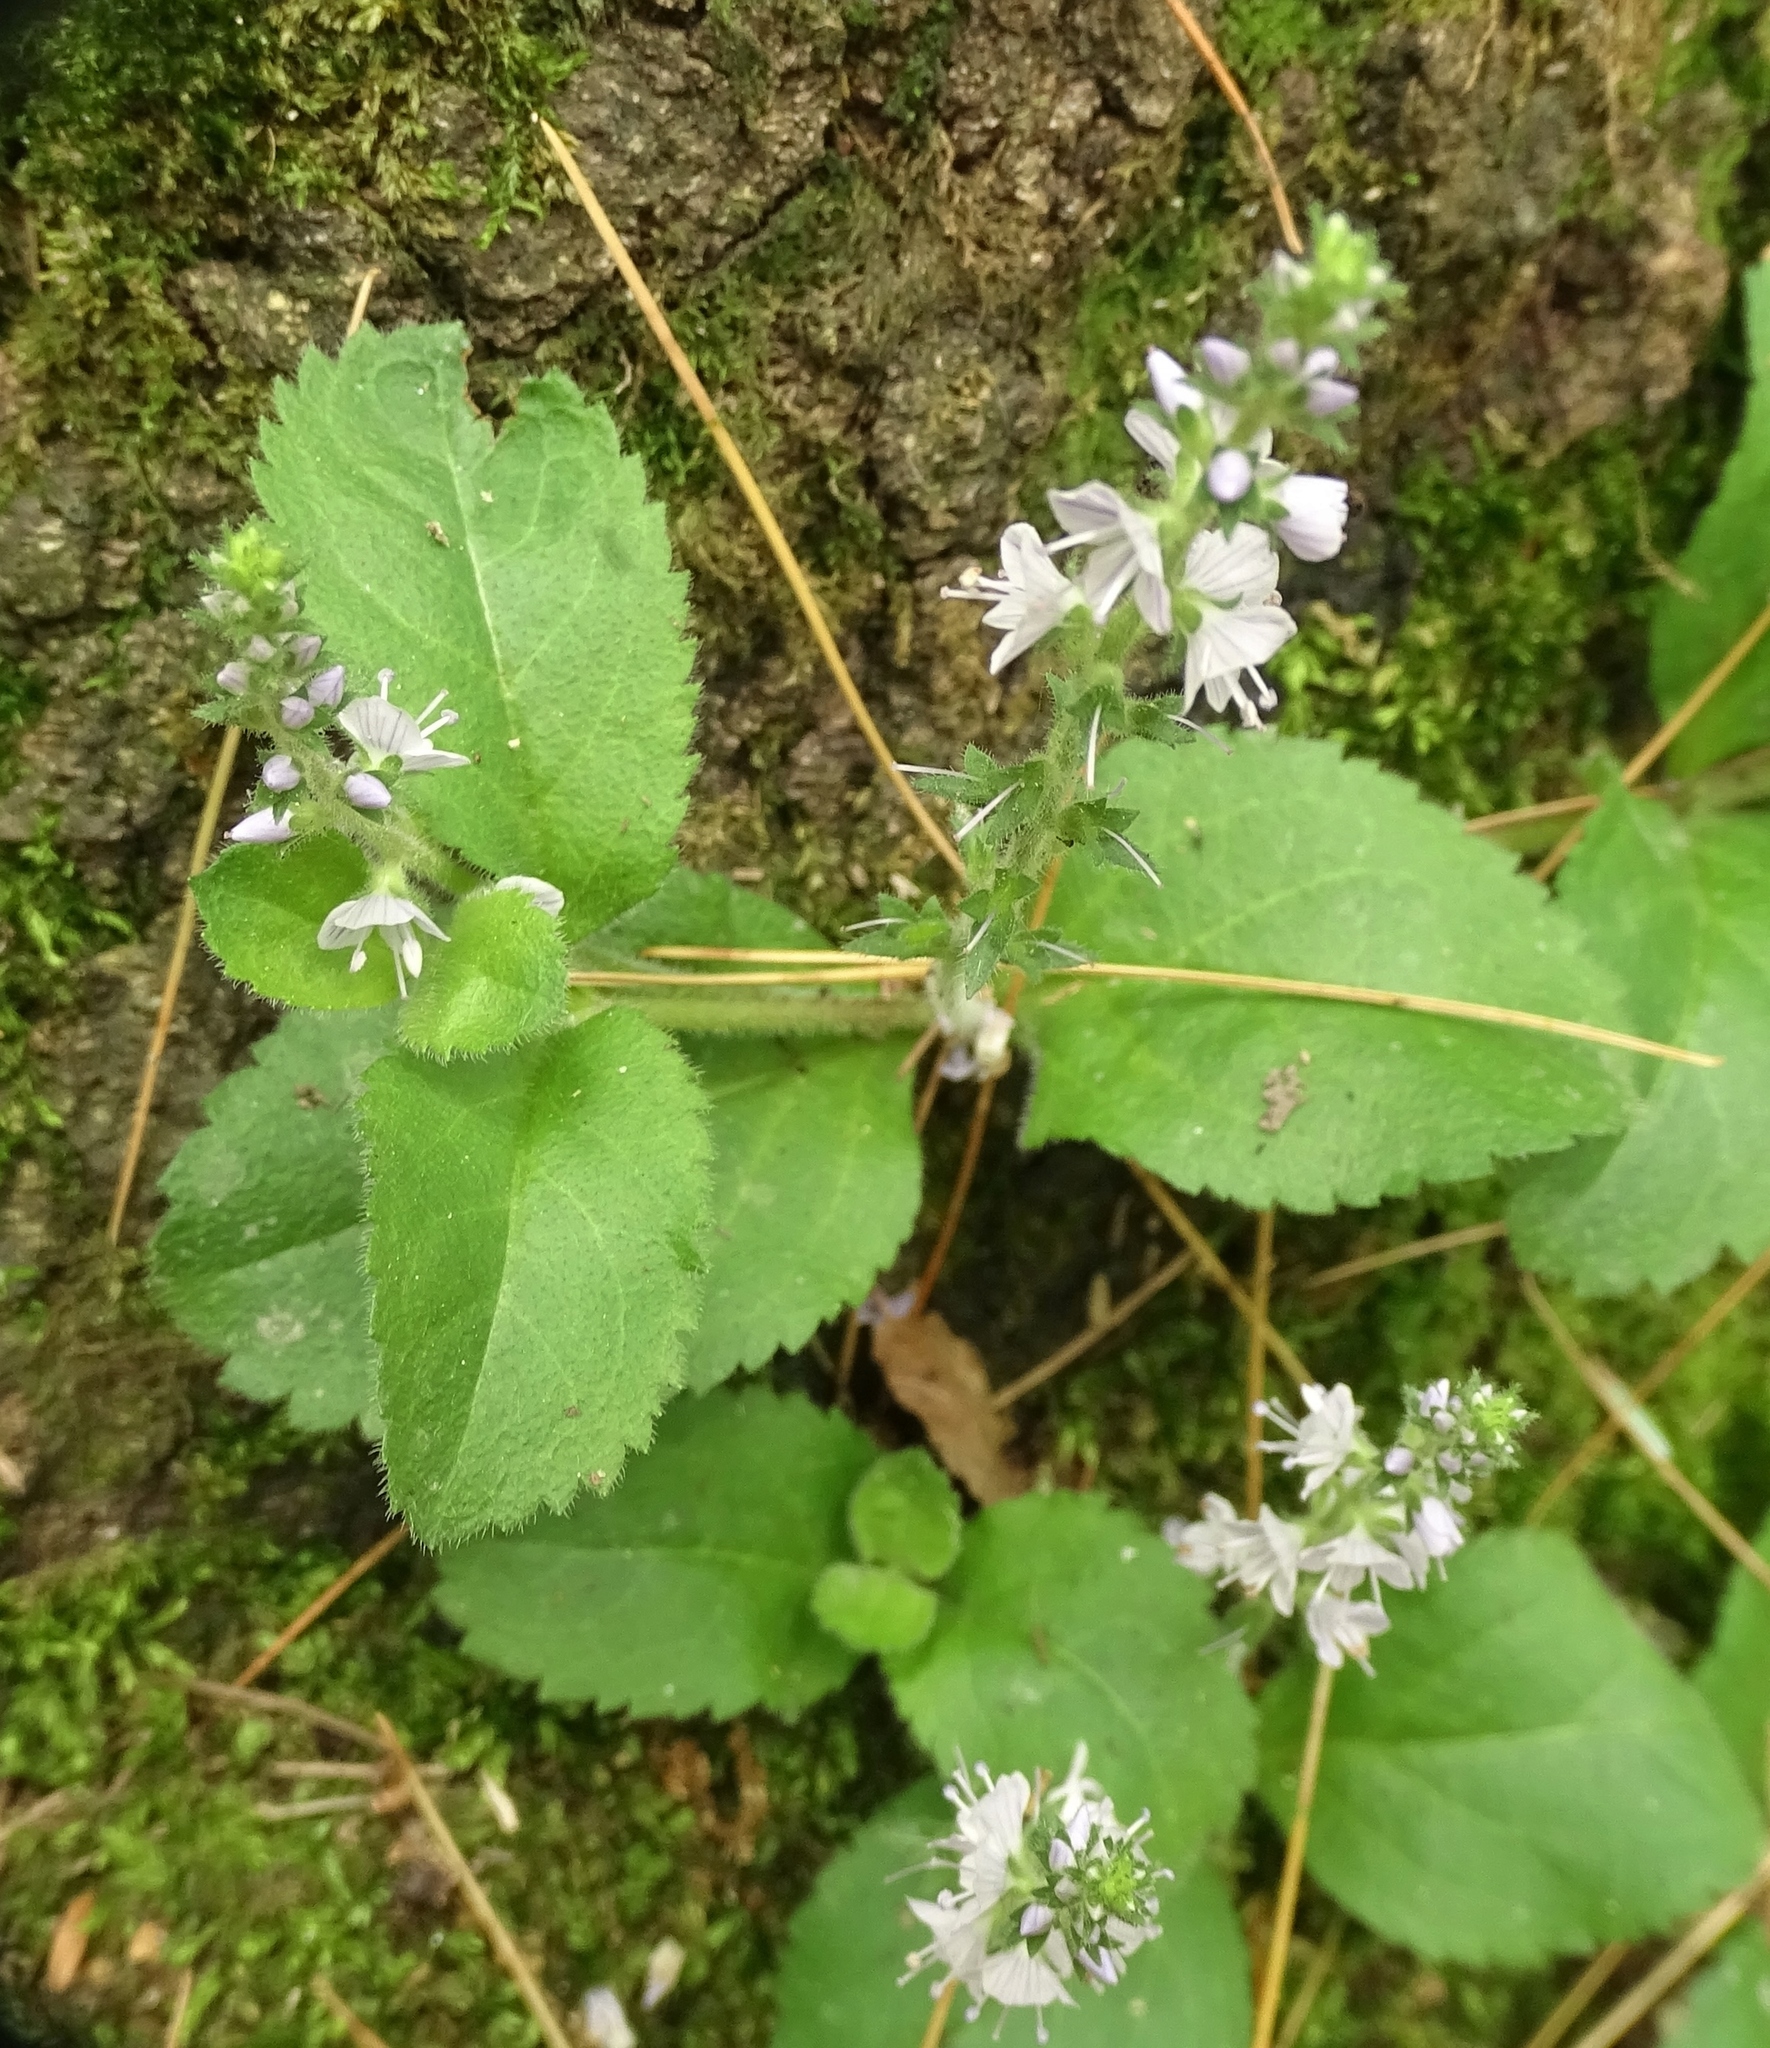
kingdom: Plantae
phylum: Tracheophyta
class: Magnoliopsida
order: Lamiales
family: Plantaginaceae
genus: Veronica
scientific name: Veronica officinalis
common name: Common speedwell
